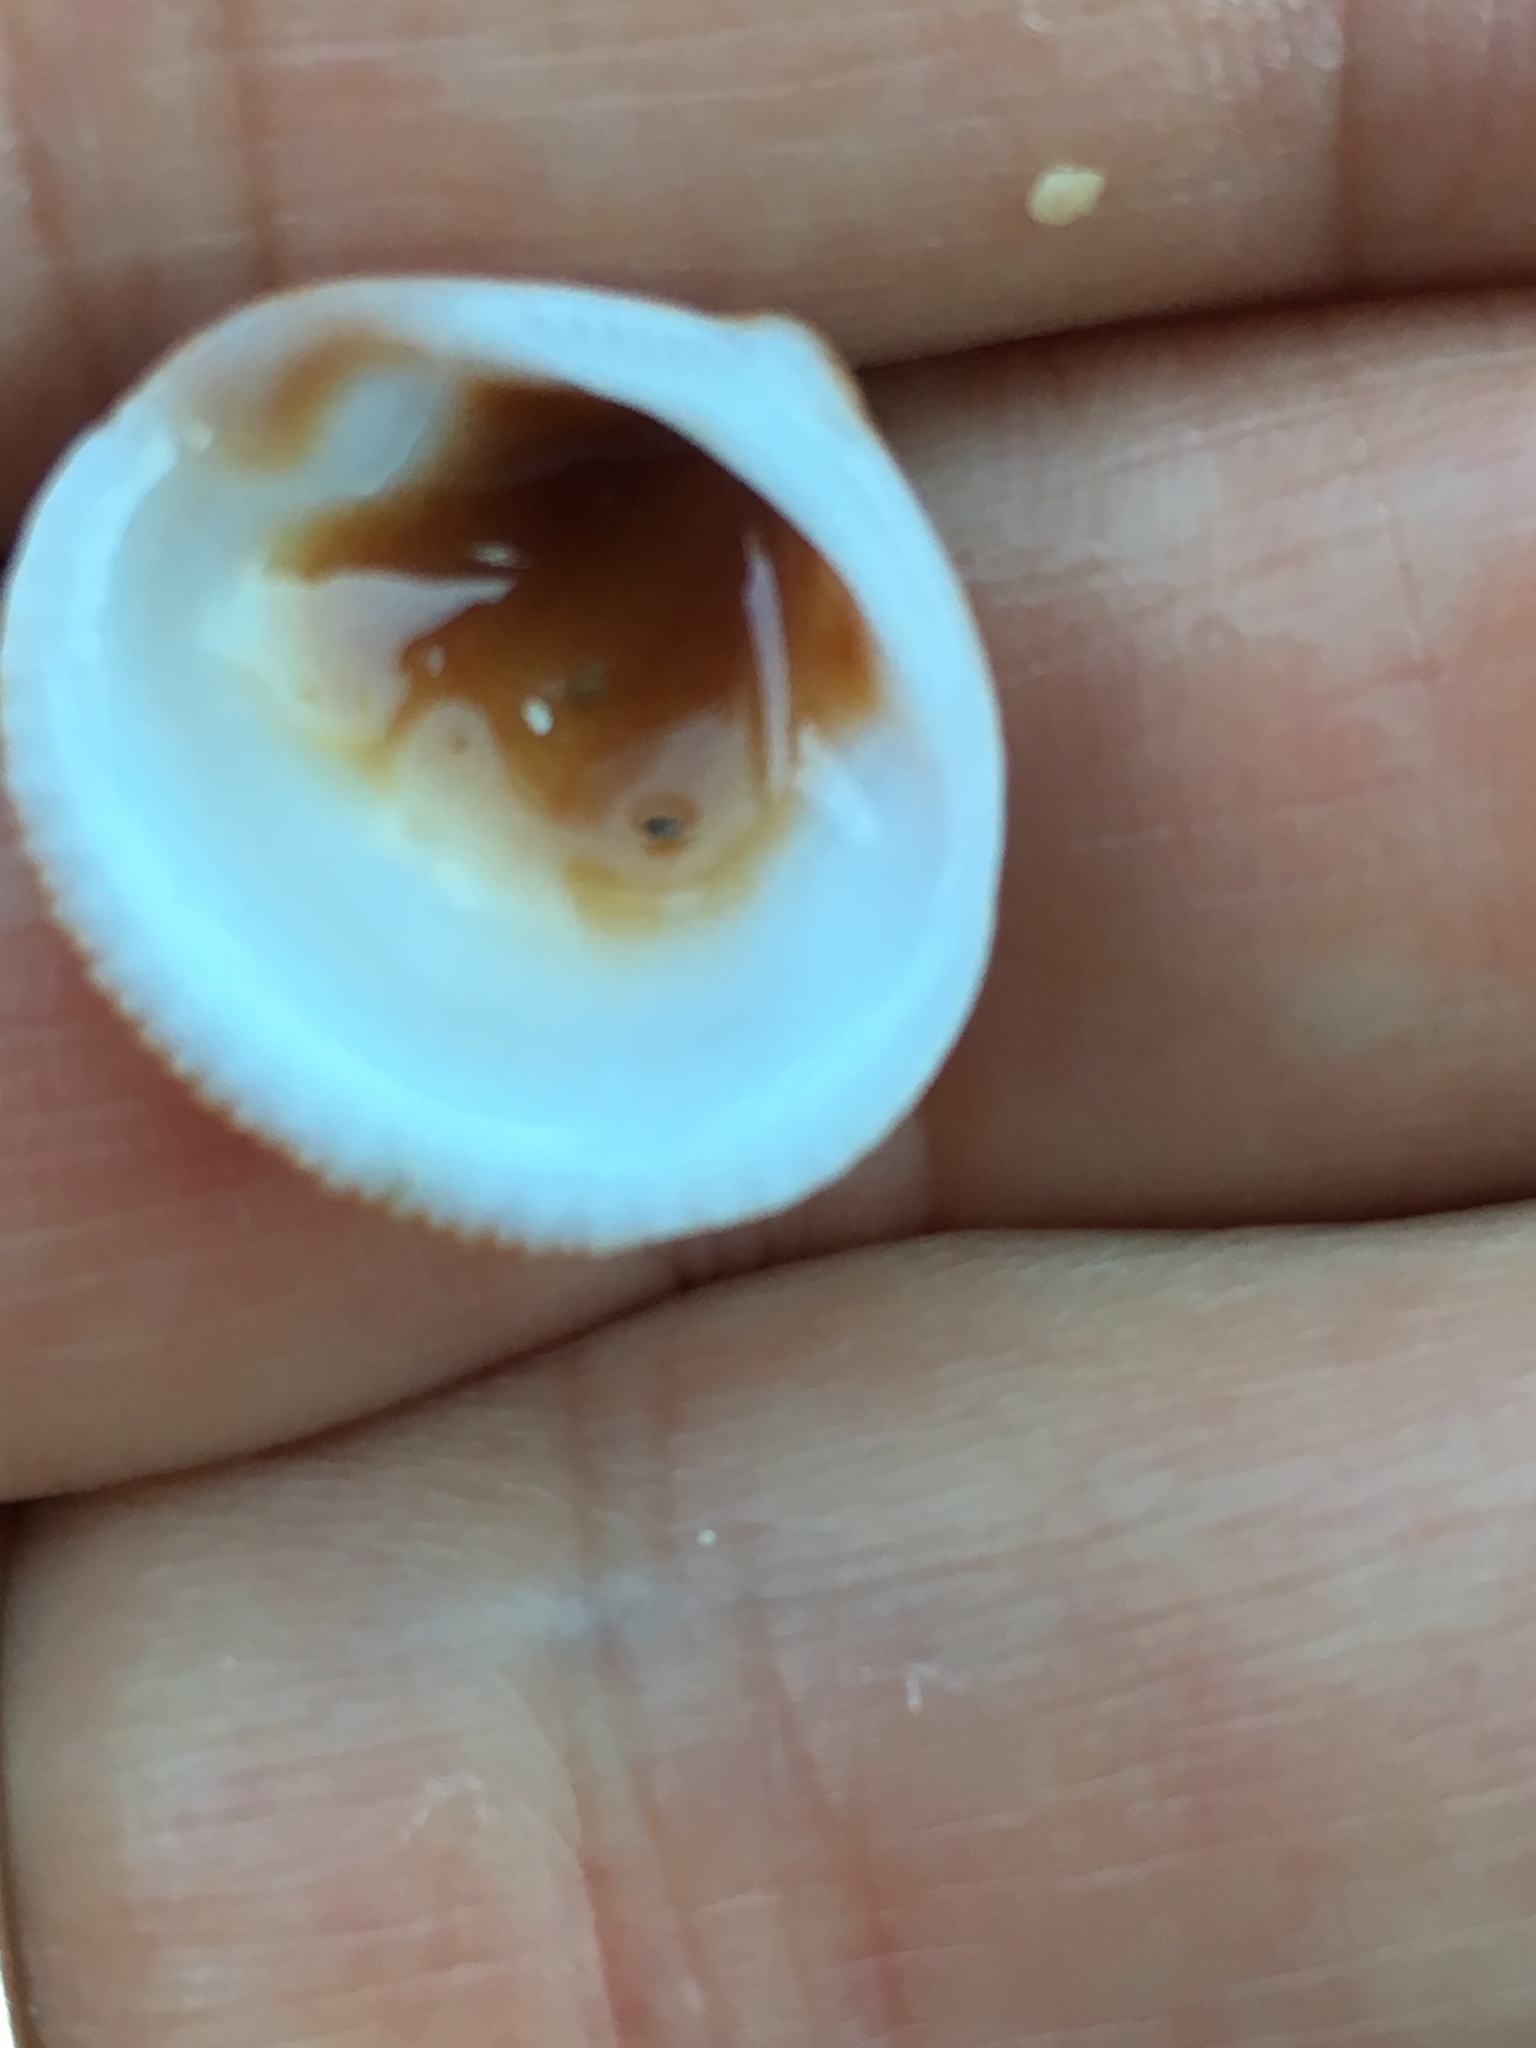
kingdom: Animalia
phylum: Mollusca
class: Bivalvia
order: Arcida
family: Glycymerididae
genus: Glycymeris
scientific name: Glycymeris spectralis
